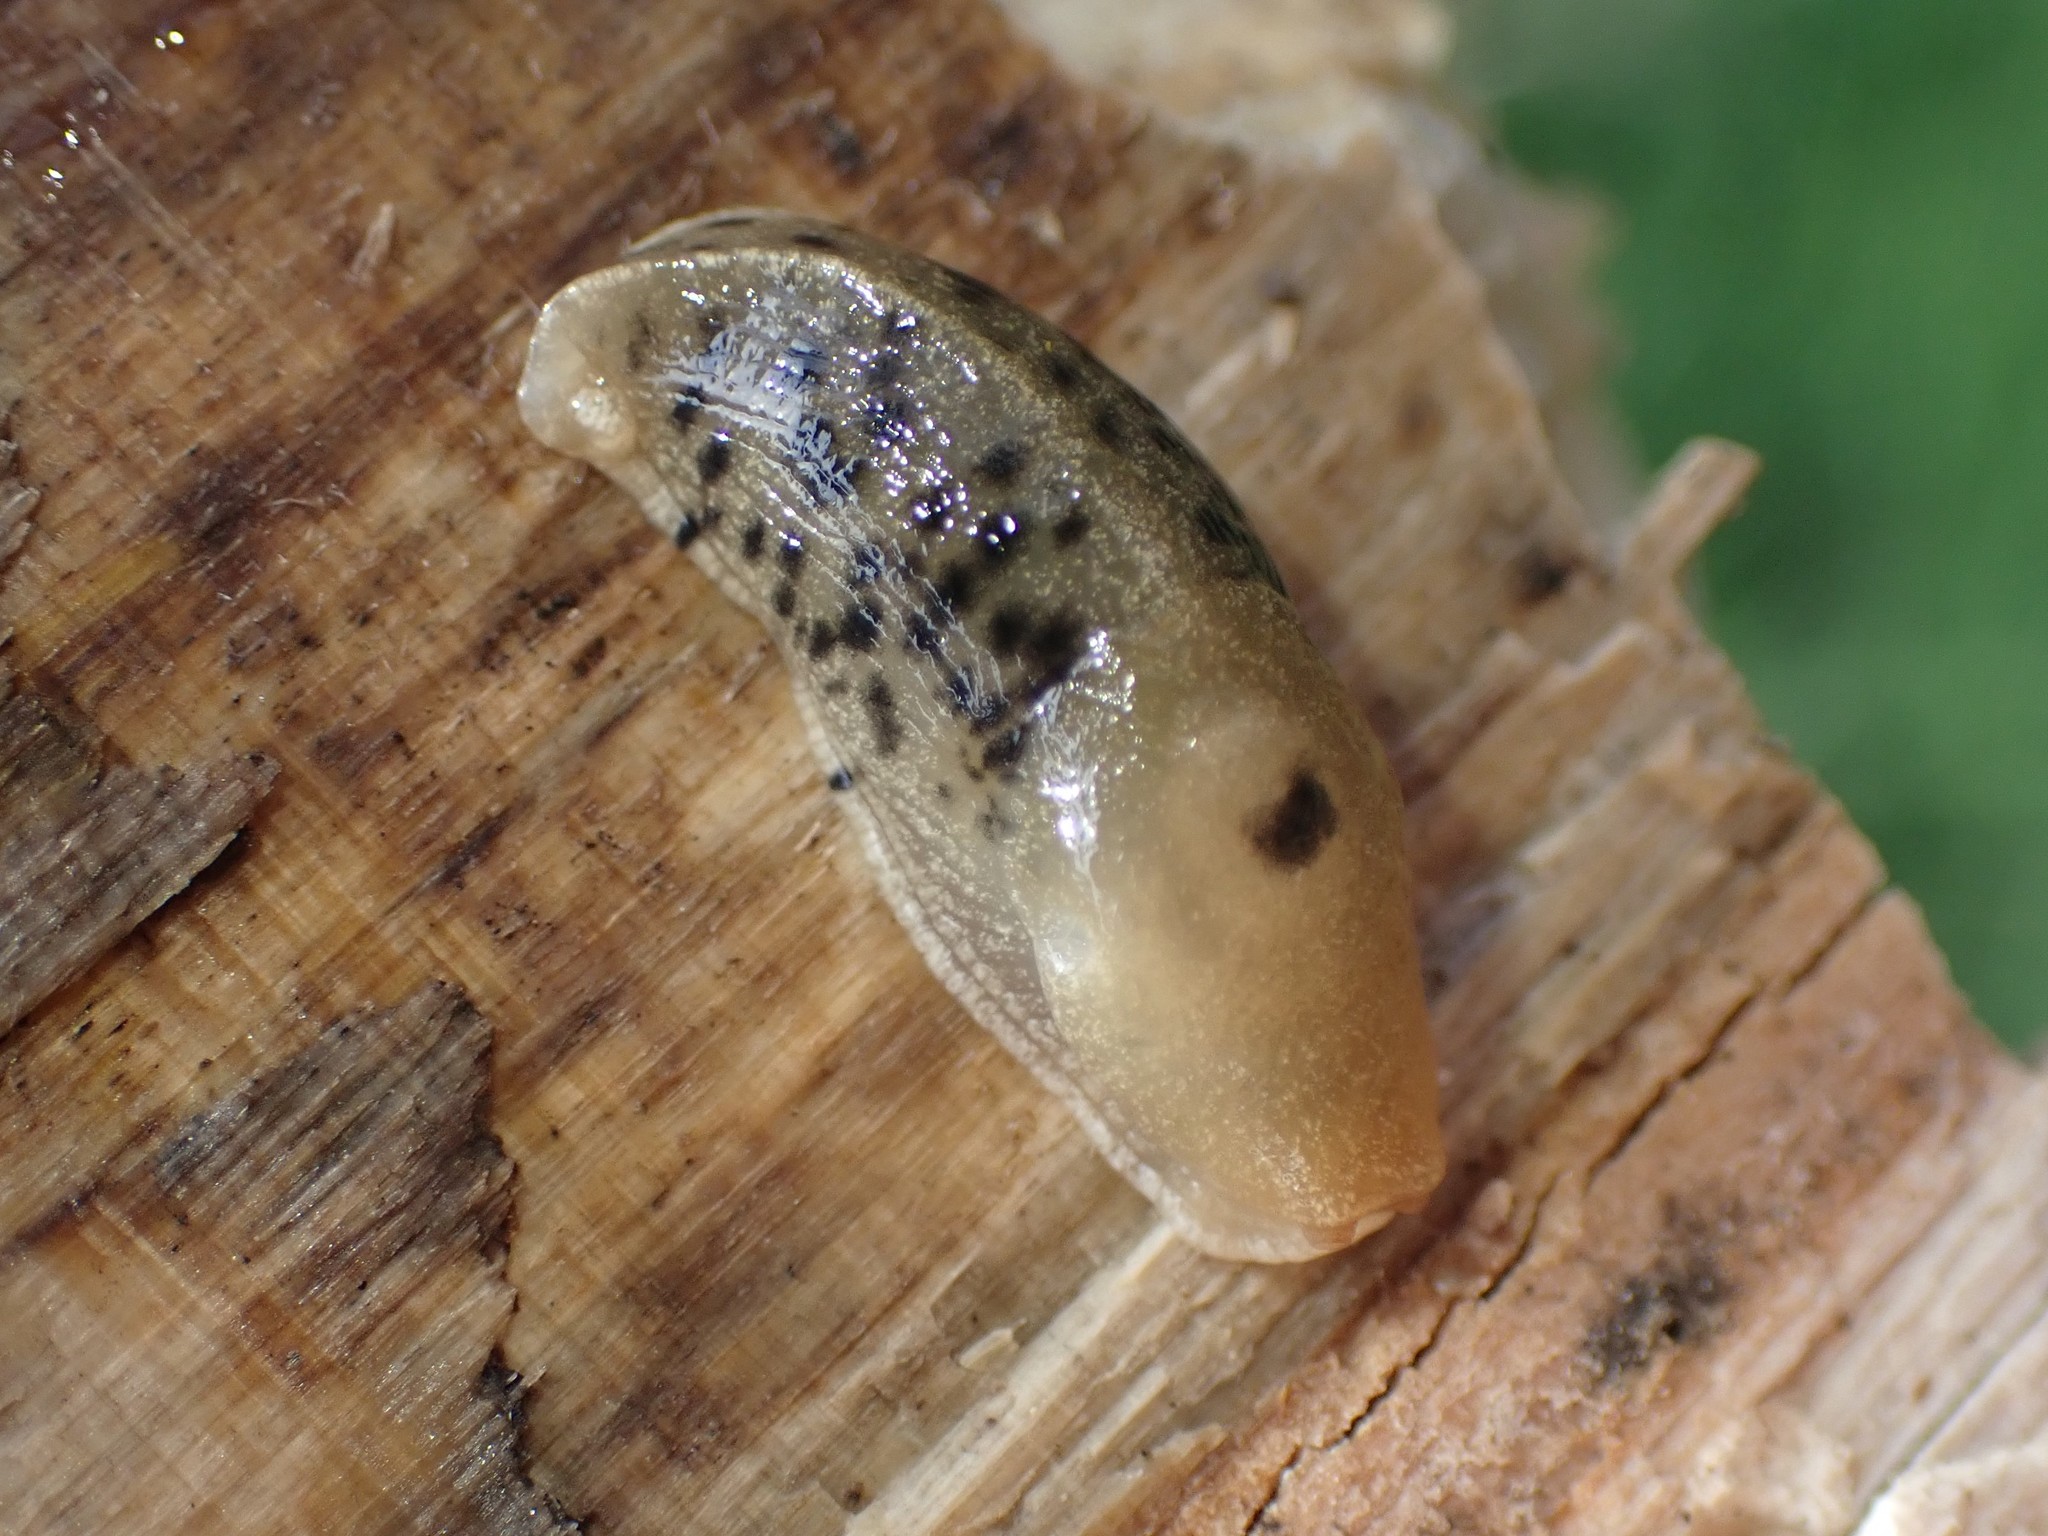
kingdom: Animalia
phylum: Mollusca
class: Gastropoda
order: Stylommatophora
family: Ariolimacidae
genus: Ariolimax
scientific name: Ariolimax columbianus
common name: Pacific banana slug
